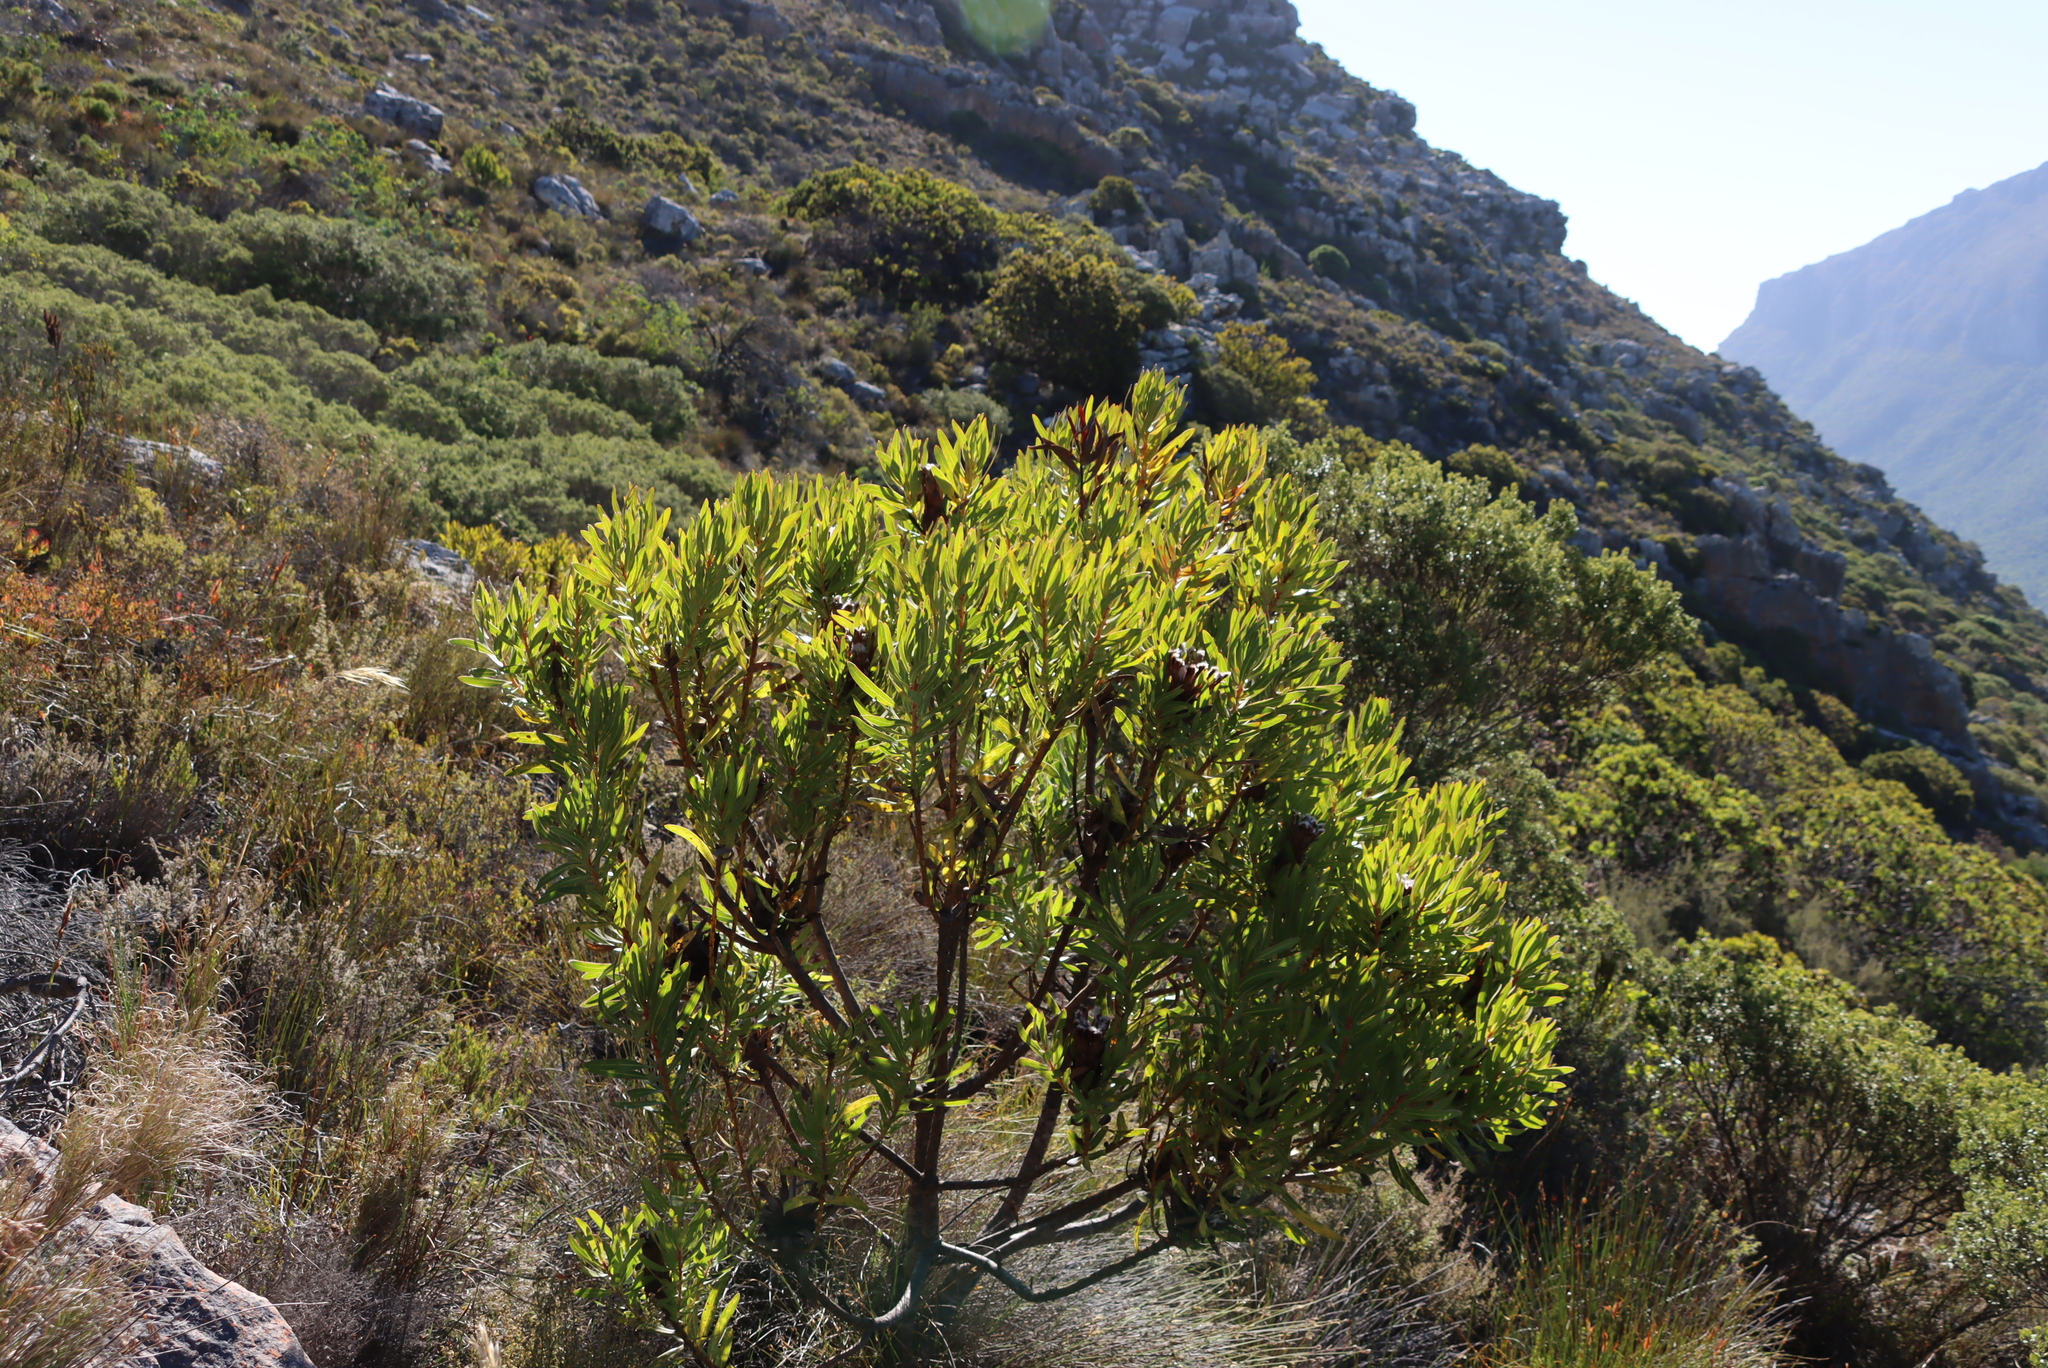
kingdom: Plantae
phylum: Tracheophyta
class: Magnoliopsida
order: Proteales
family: Proteaceae
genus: Protea
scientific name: Protea lepidocarpodendron
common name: Black-bearded protea
